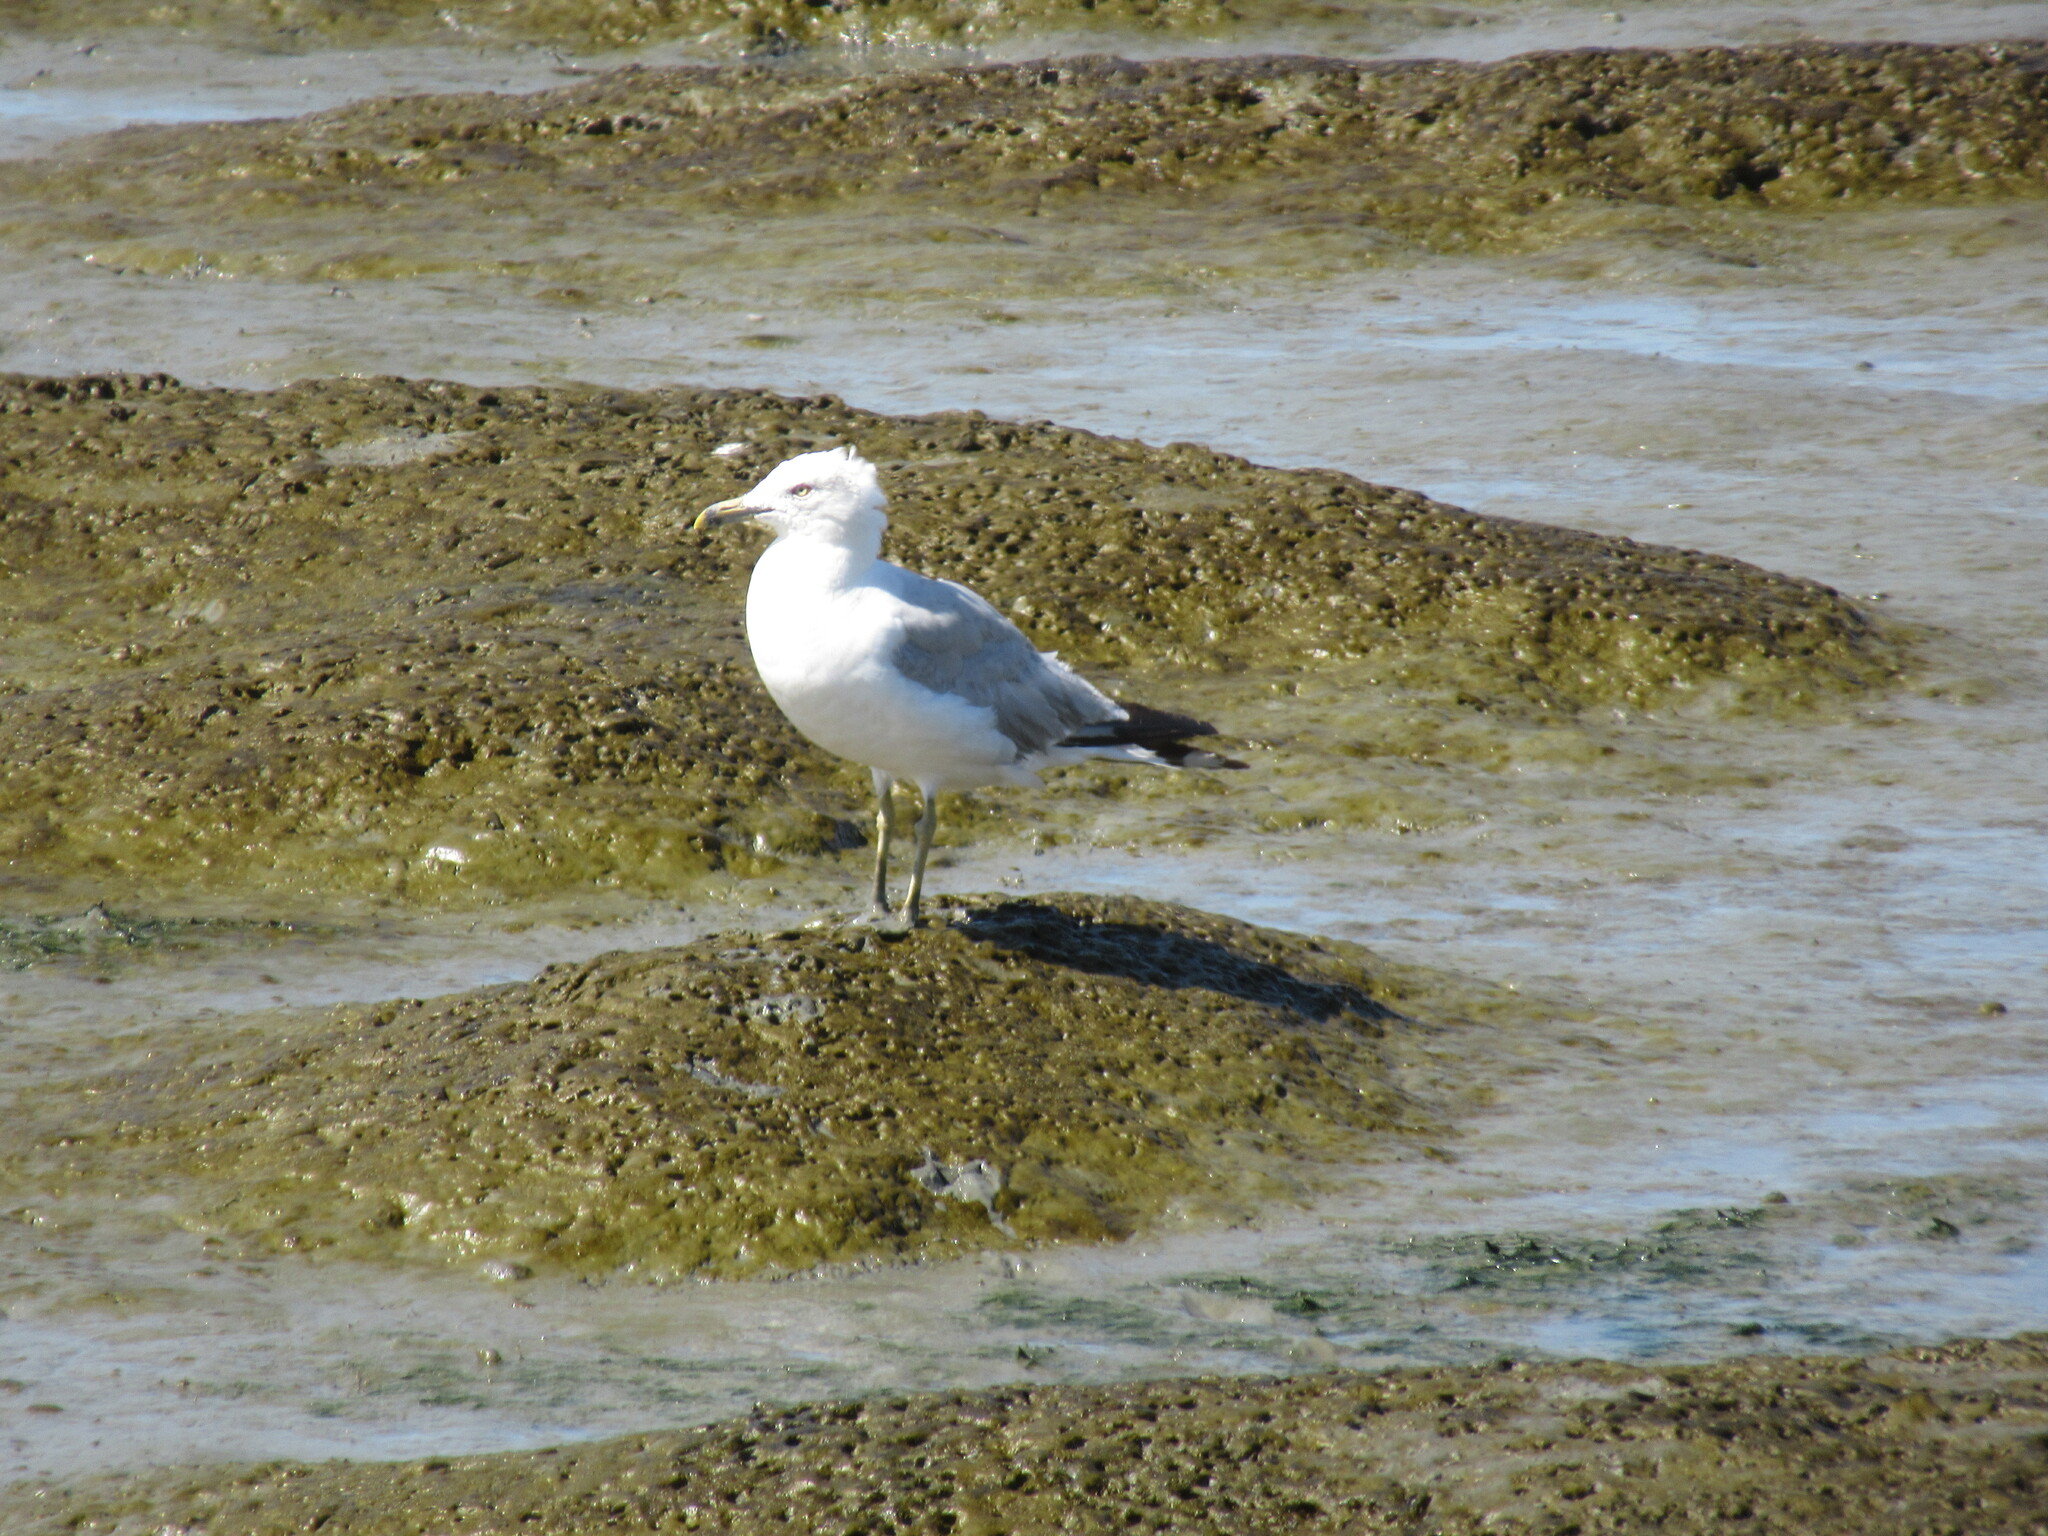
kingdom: Animalia
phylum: Chordata
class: Aves
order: Charadriiformes
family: Laridae
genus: Larus
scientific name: Larus delawarensis
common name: Ring-billed gull
